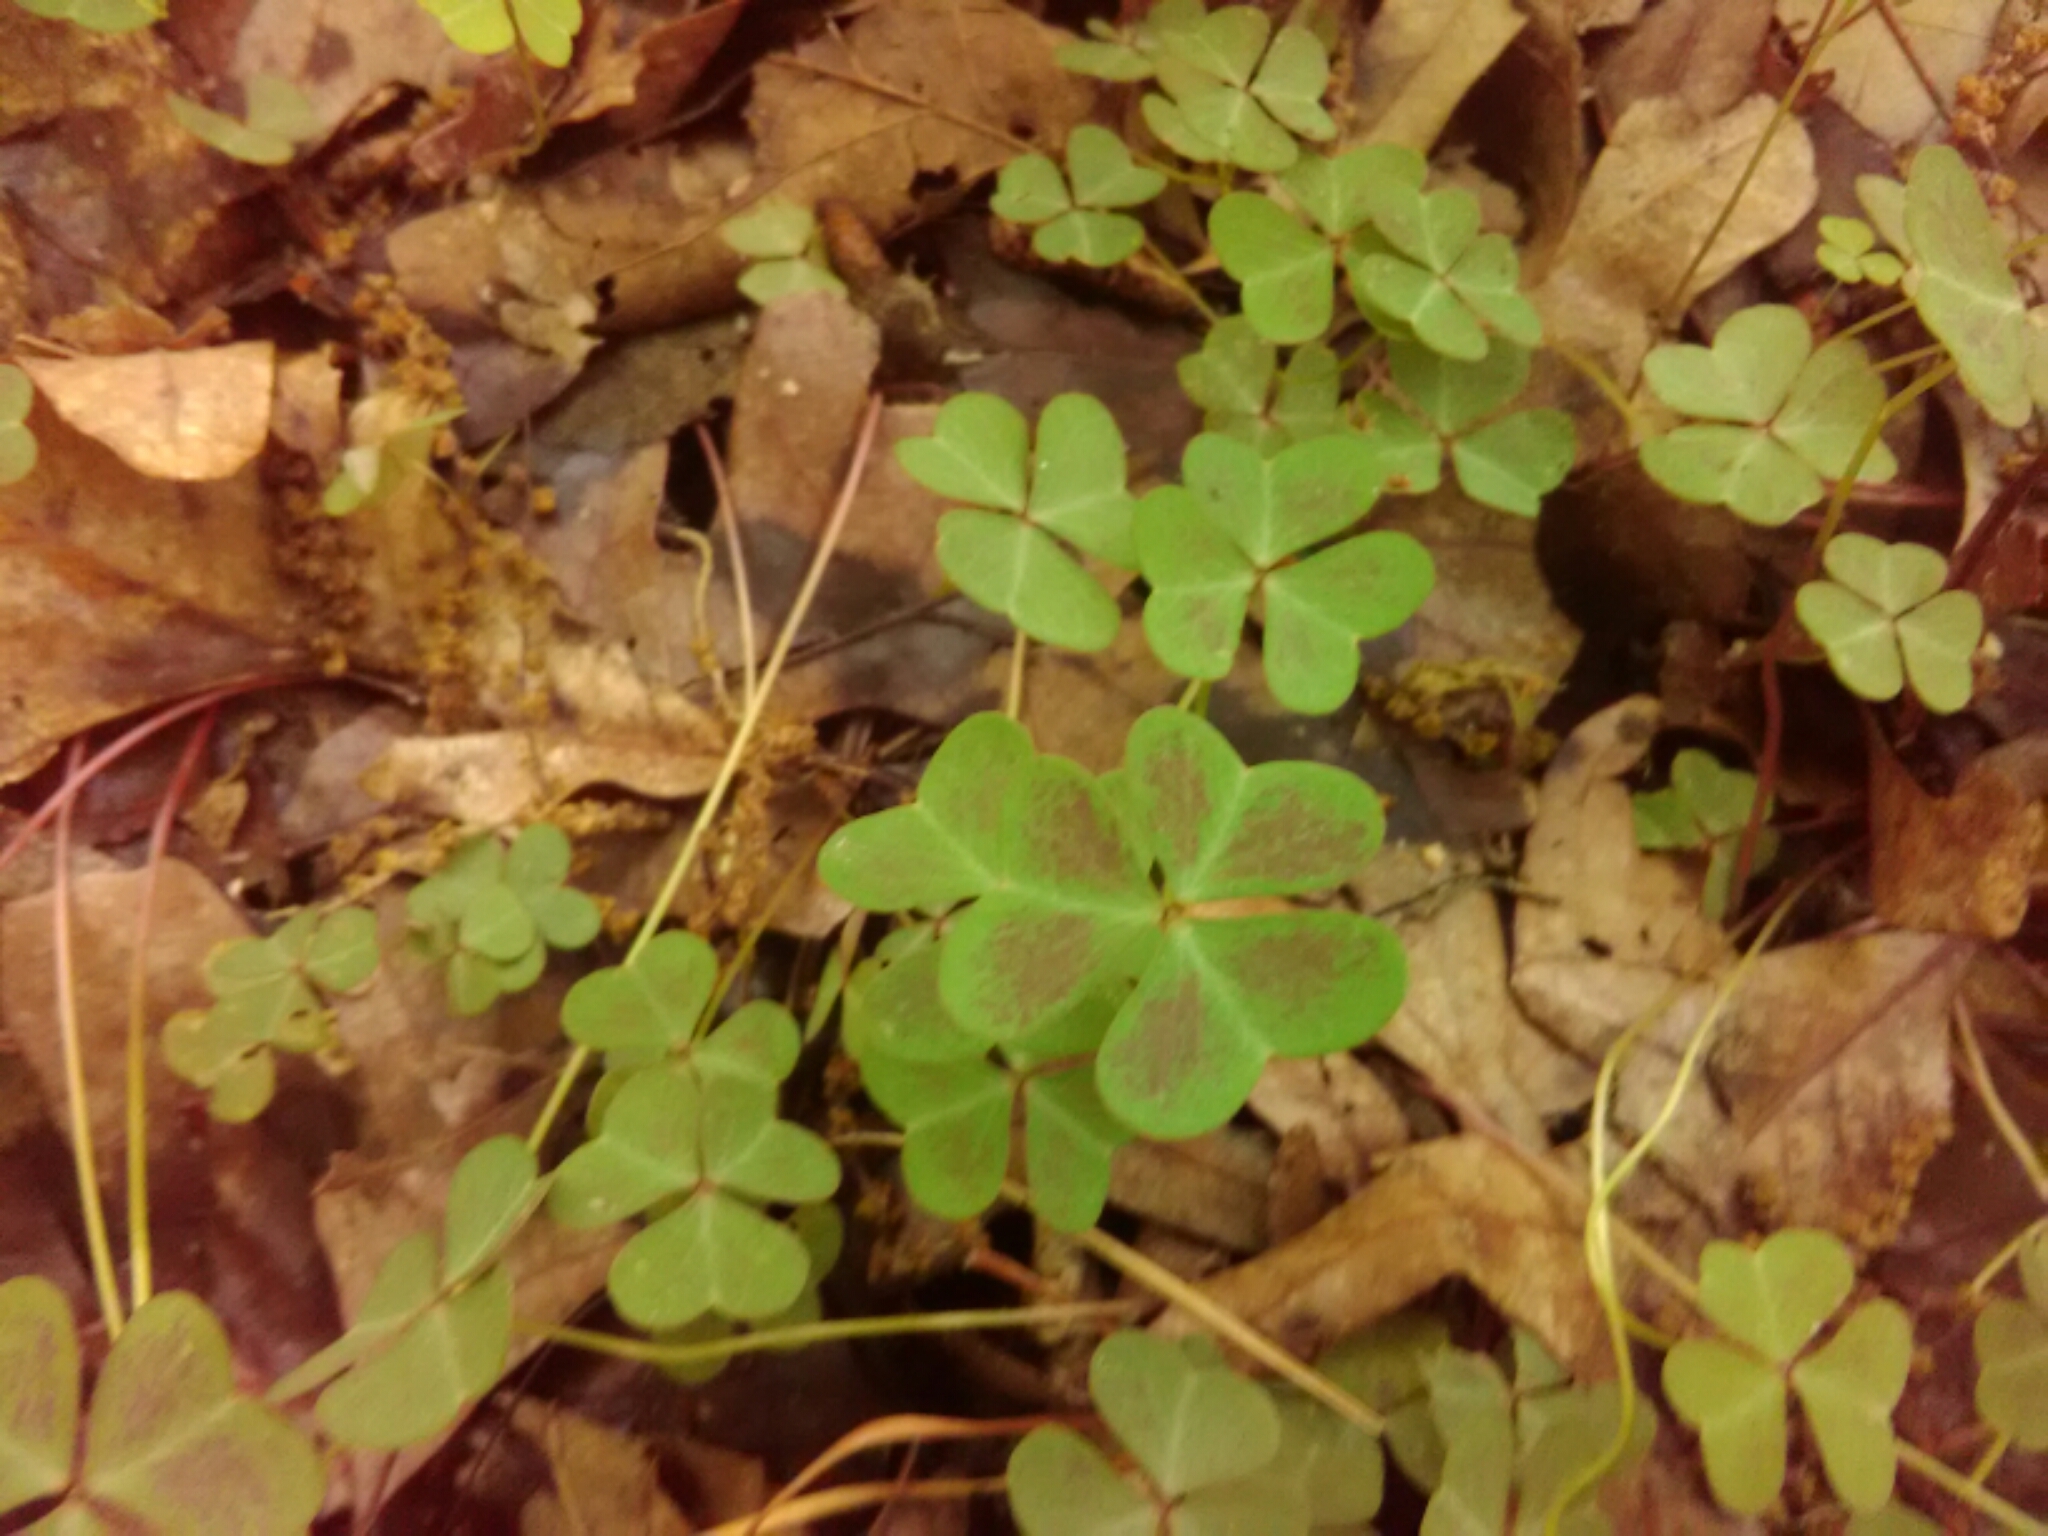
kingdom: Plantae
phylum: Tracheophyta
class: Magnoliopsida
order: Oxalidales
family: Oxalidaceae
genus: Oxalis
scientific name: Oxalis violacea
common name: Violet wood-sorrel
